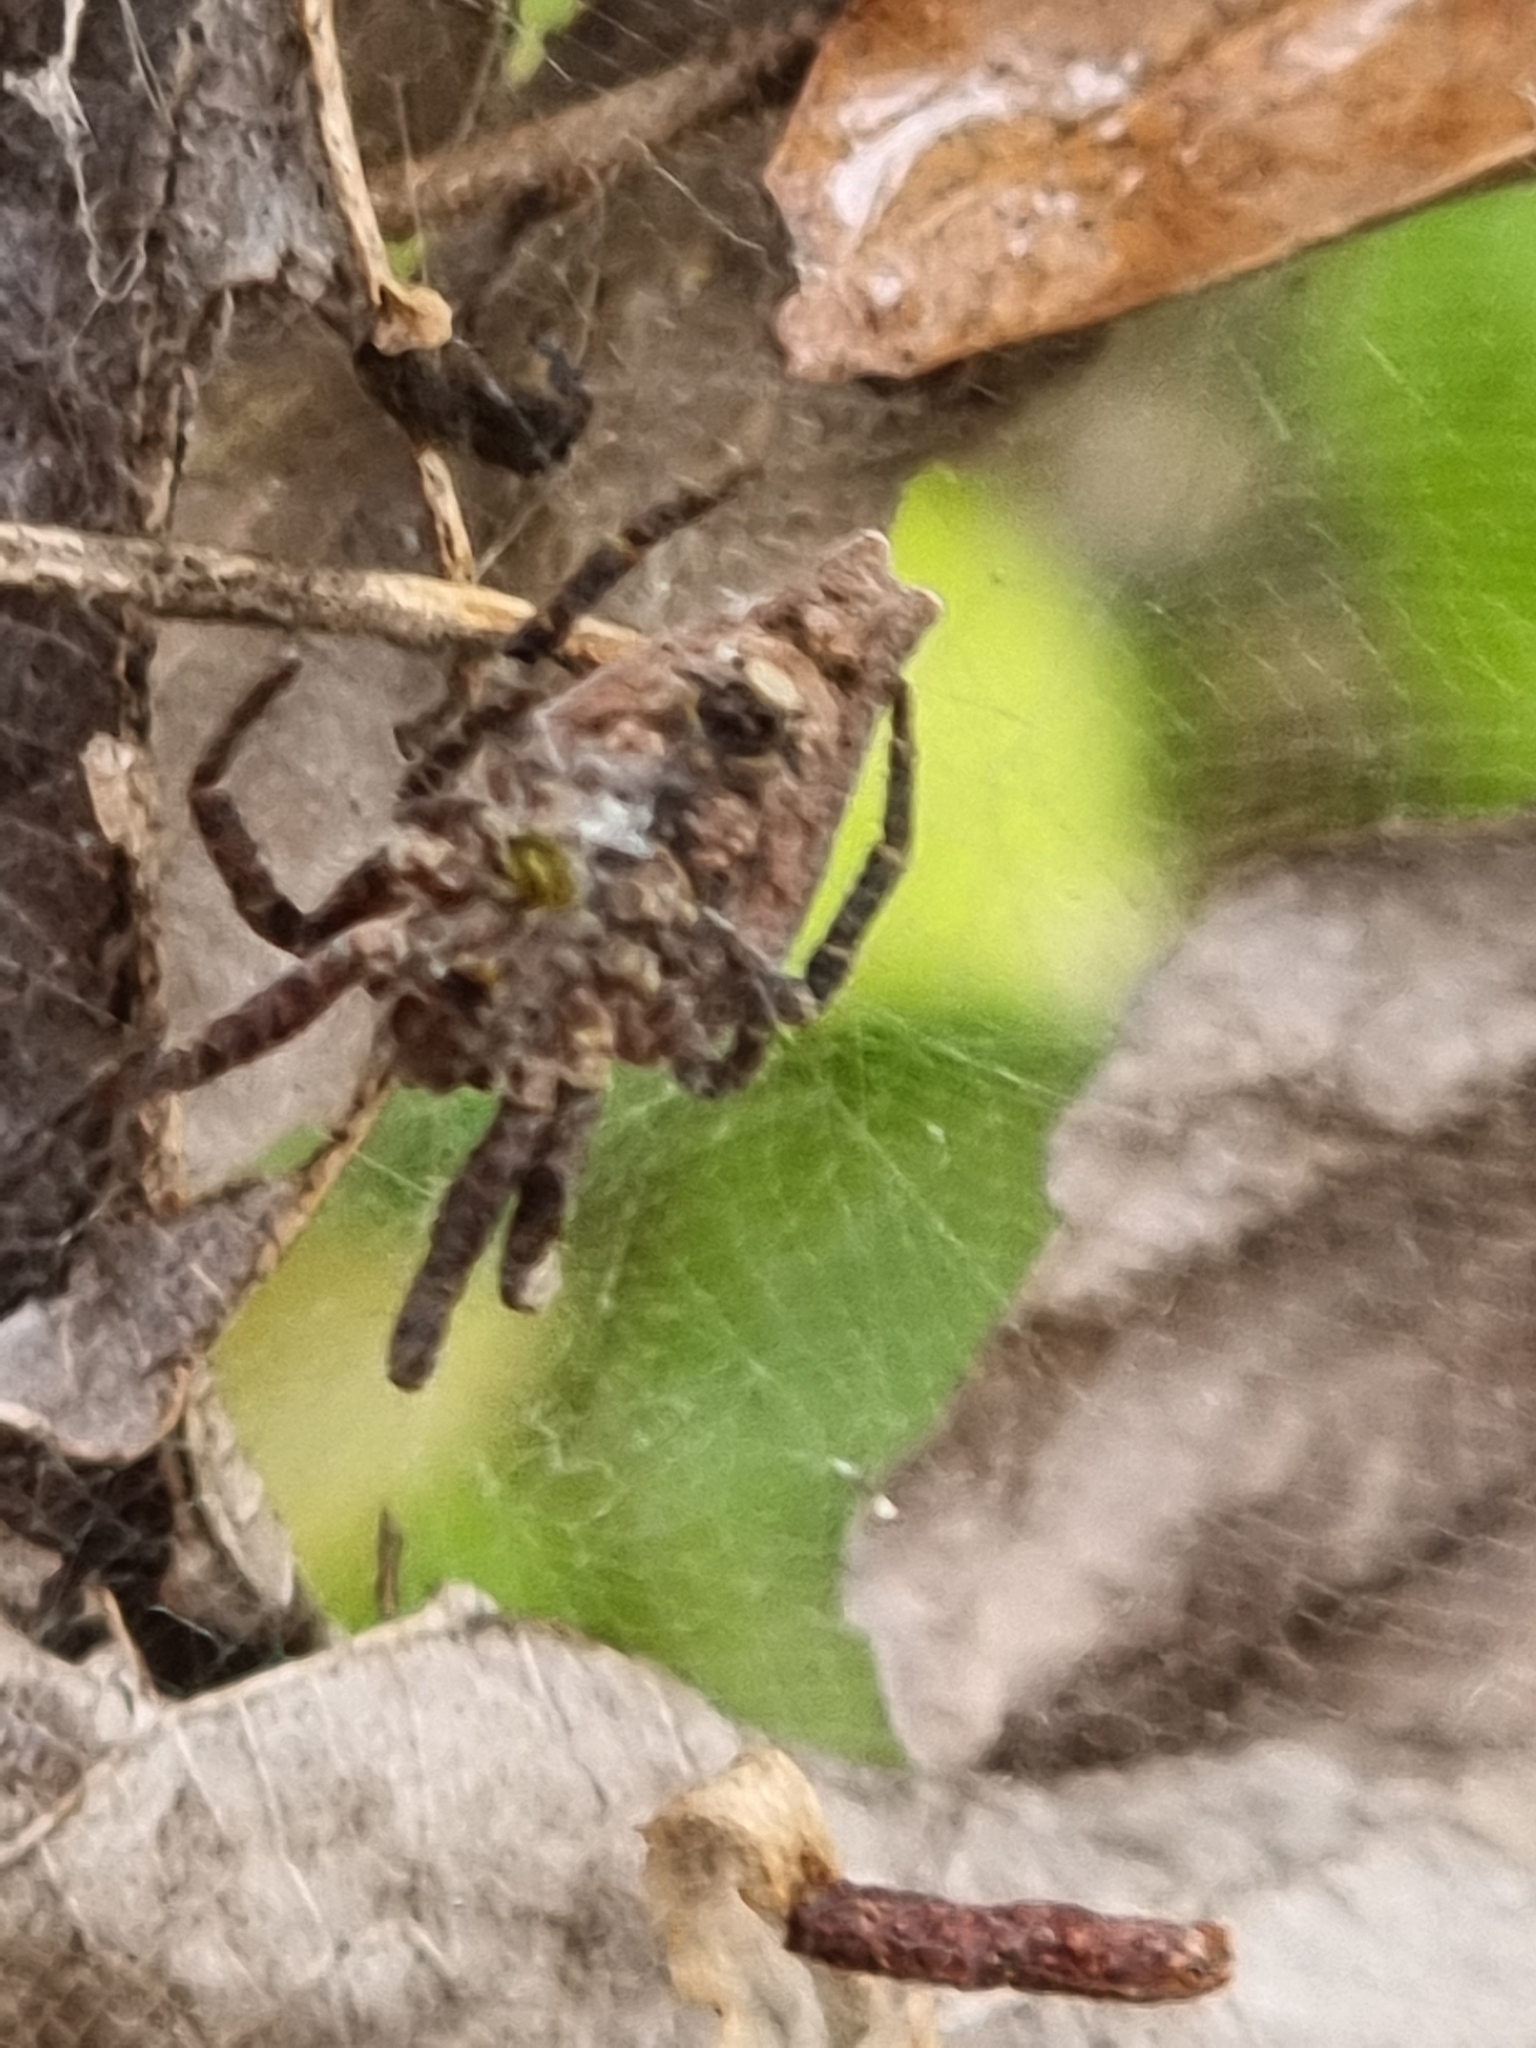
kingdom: Animalia
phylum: Arthropoda
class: Arachnida
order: Araneae
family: Araneidae
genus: Cyrtophora
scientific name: Cyrtophora exanthematica
